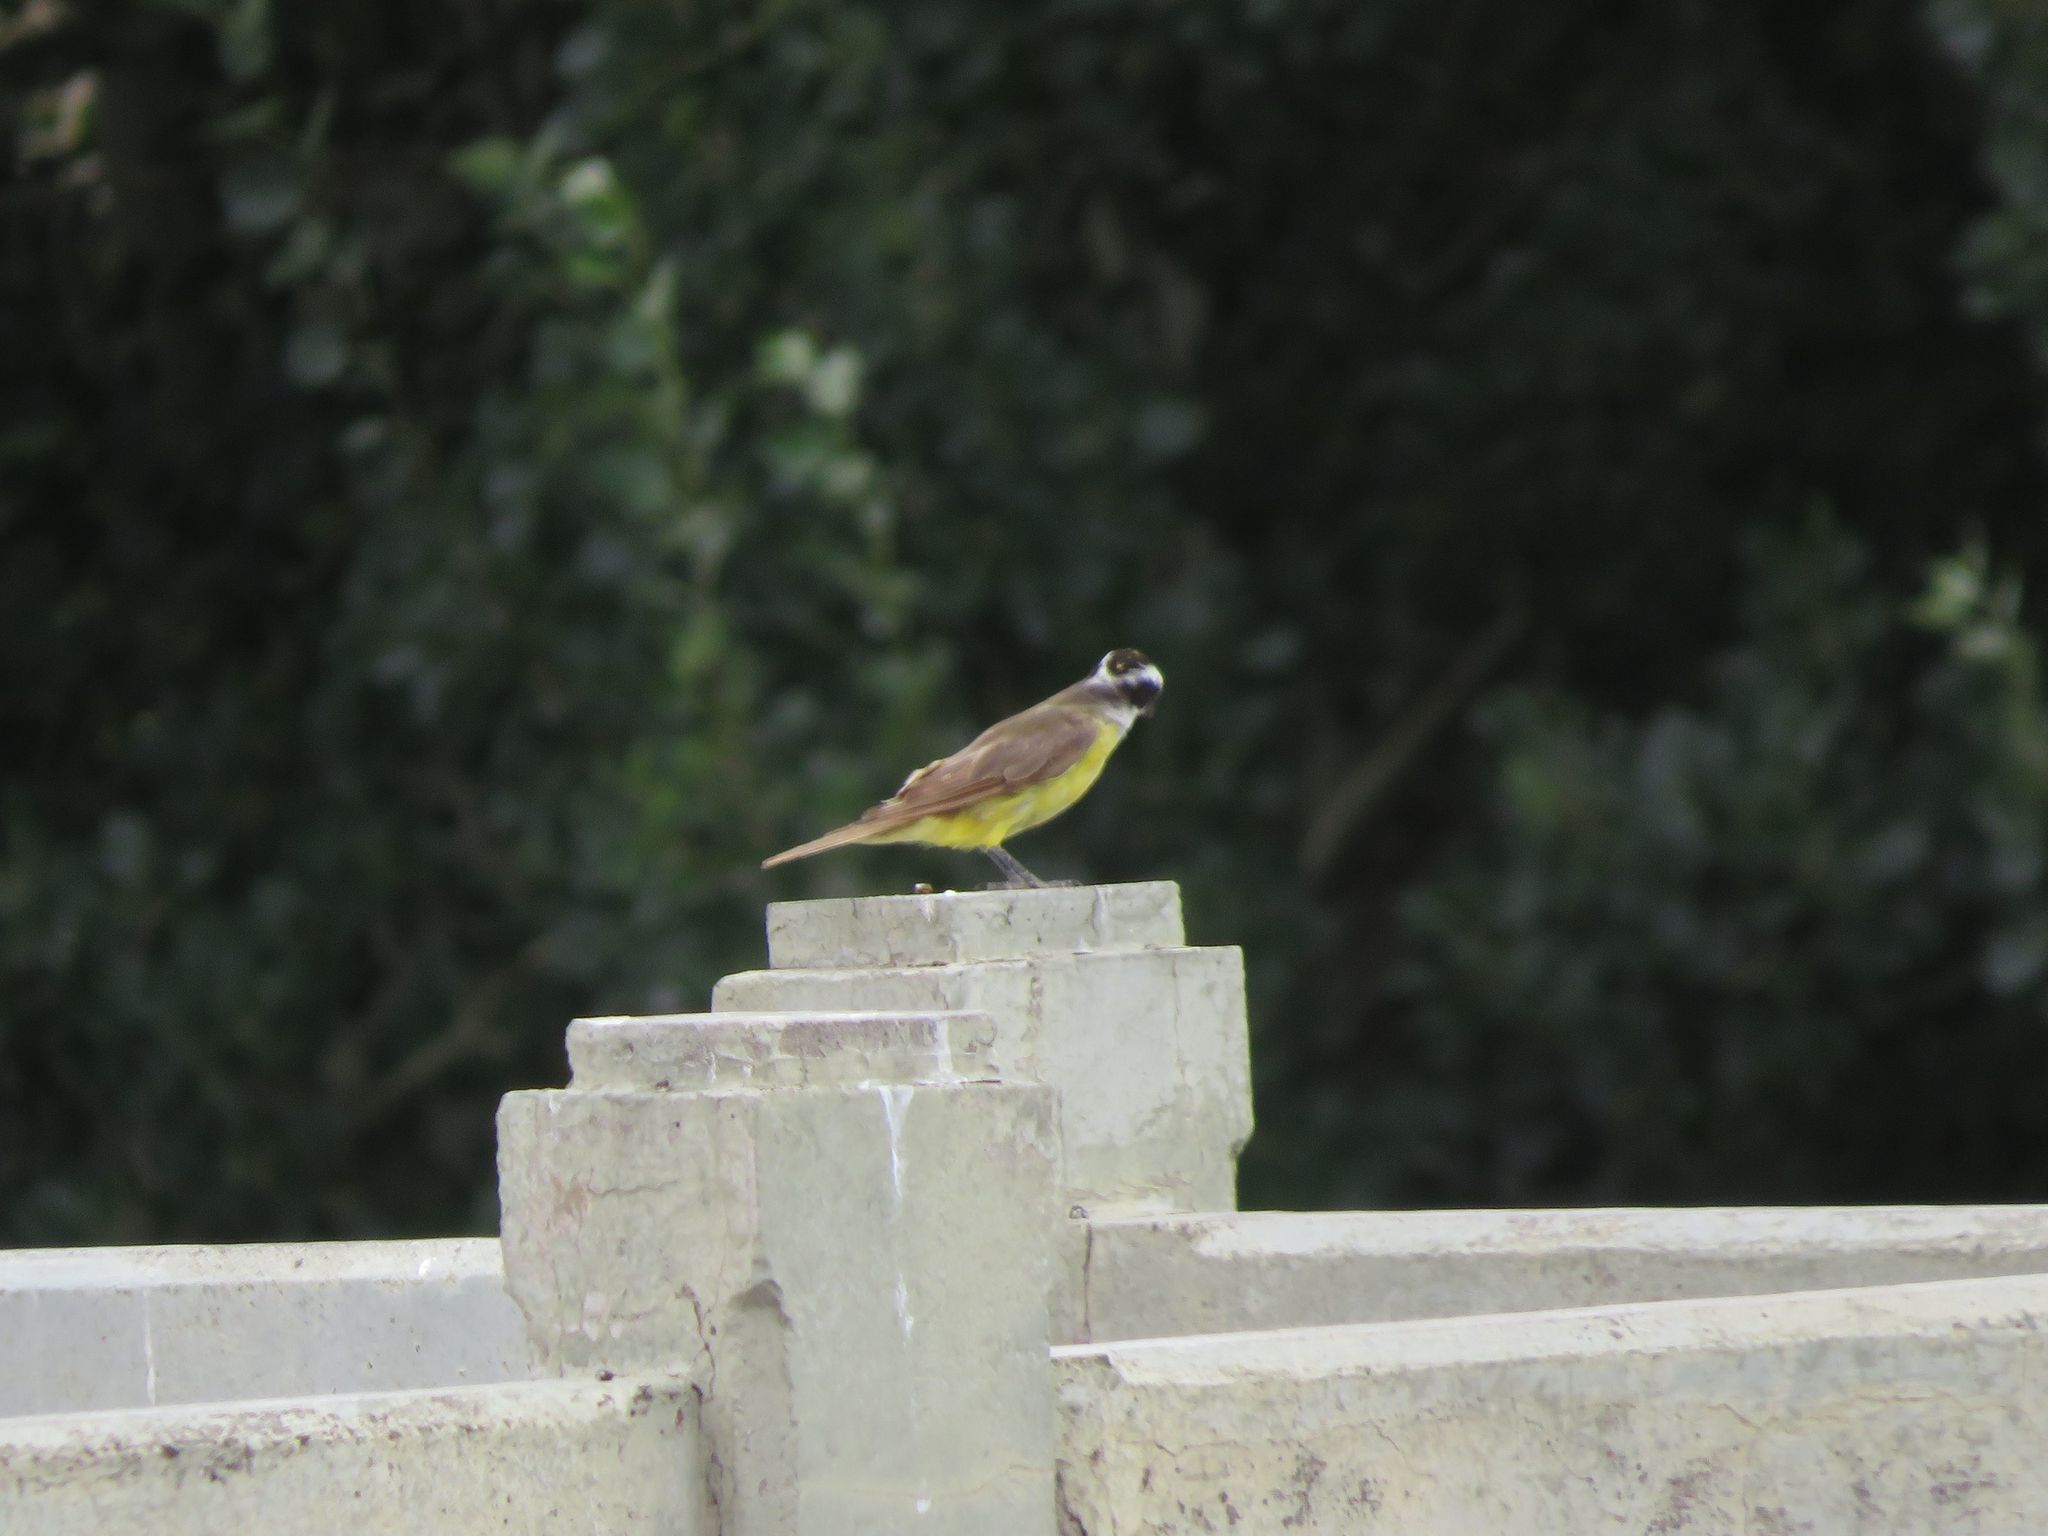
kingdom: Animalia
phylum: Chordata
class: Aves
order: Passeriformes
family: Tyrannidae
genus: Pitangus
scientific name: Pitangus sulphuratus
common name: Great kiskadee
